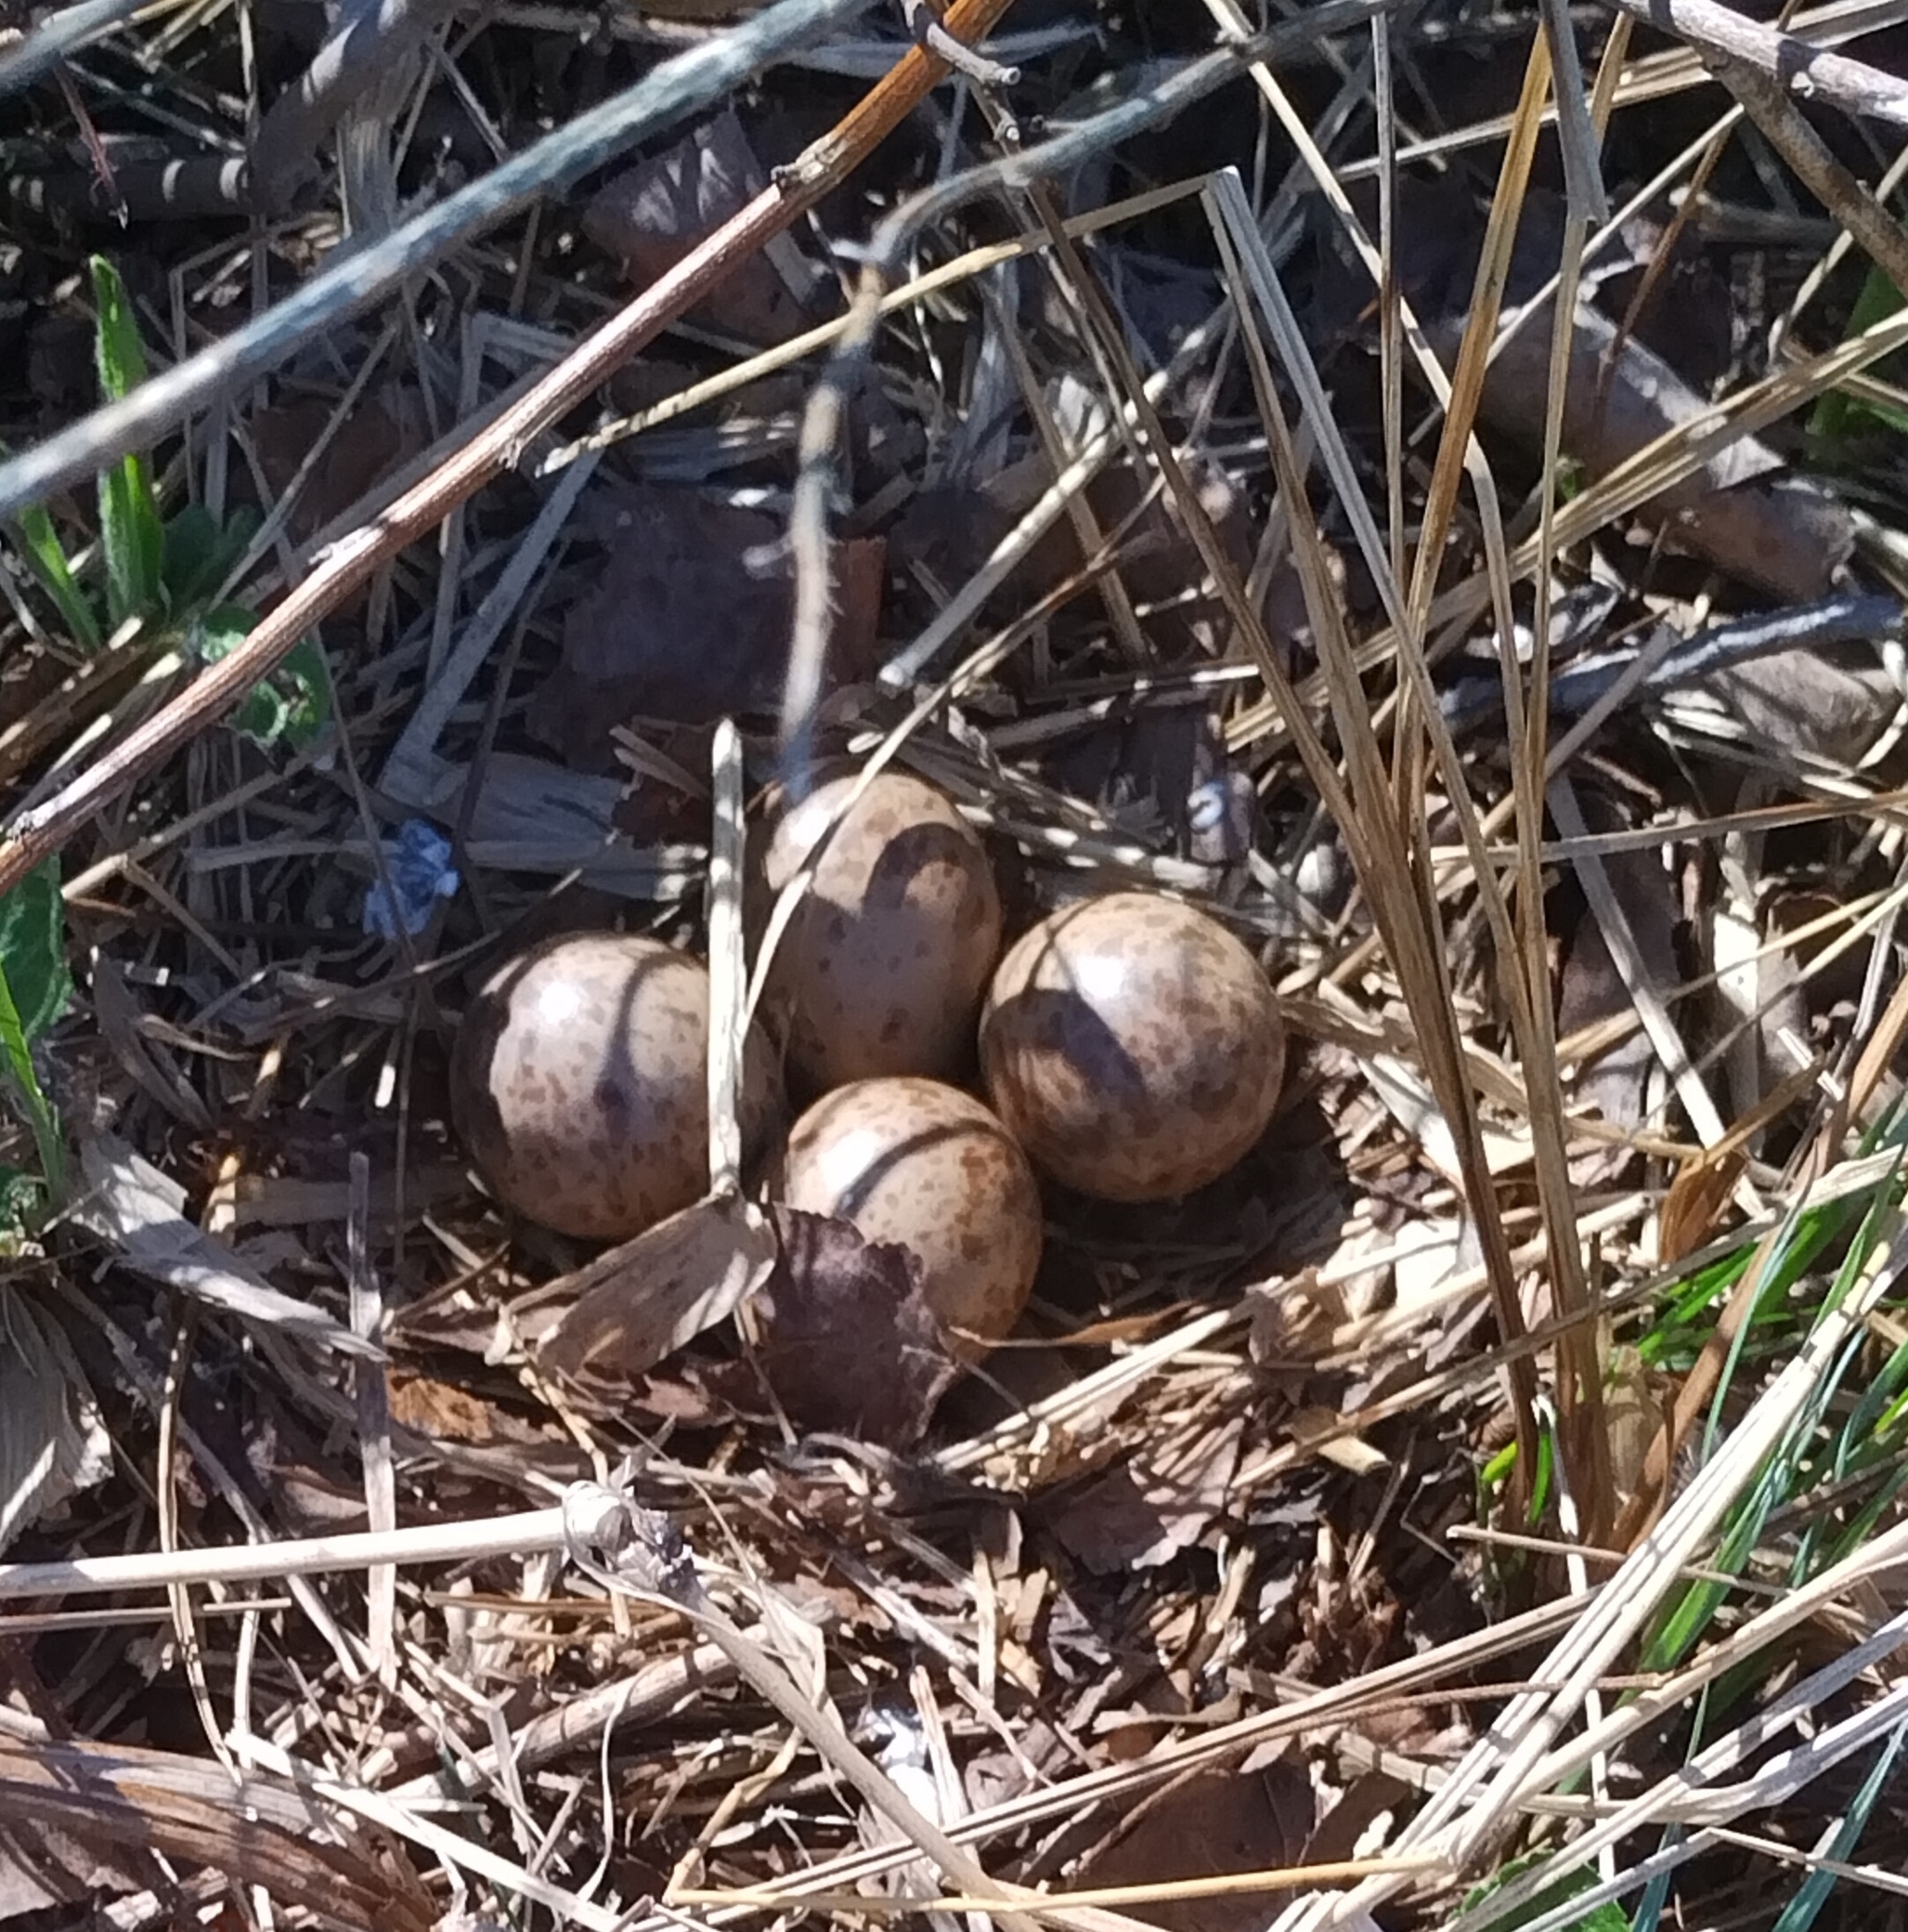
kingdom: Animalia
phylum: Chordata
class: Aves
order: Charadriiformes
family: Scolopacidae
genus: Scolopax
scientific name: Scolopax minor
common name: American woodcock
